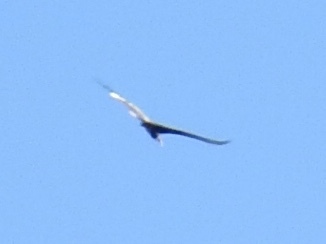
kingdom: Animalia
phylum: Chordata
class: Aves
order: Accipitriformes
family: Cathartidae
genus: Cathartes
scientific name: Cathartes aura
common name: Turkey vulture
